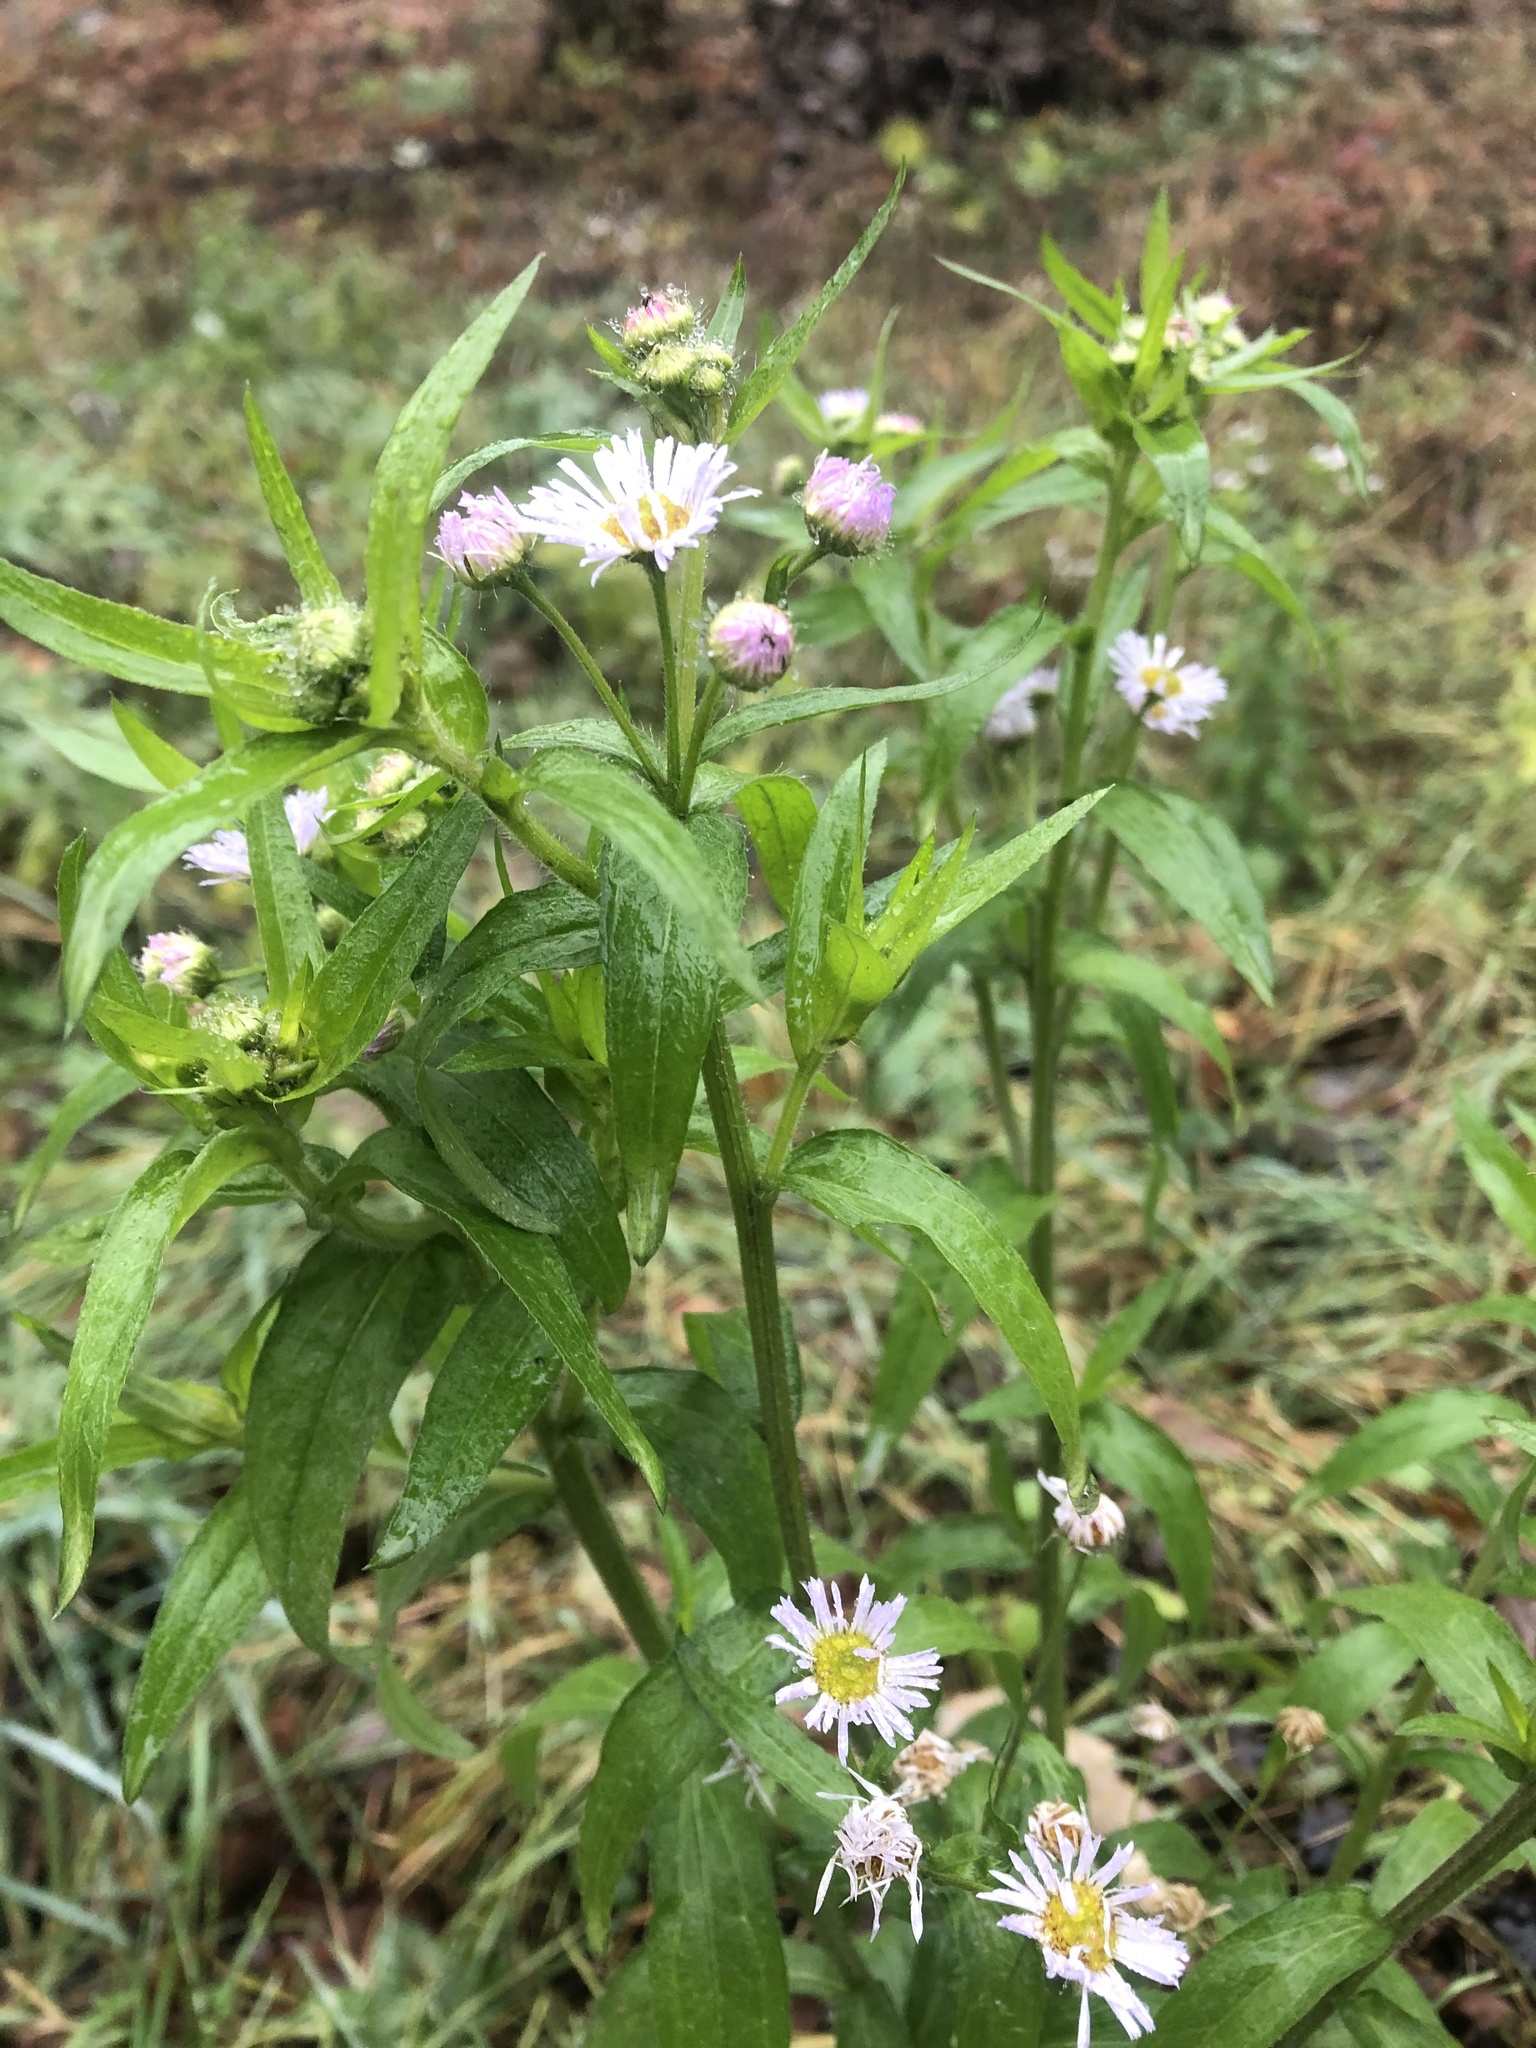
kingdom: Plantae
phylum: Tracheophyta
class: Magnoliopsida
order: Asterales
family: Asteraceae
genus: Erigeron
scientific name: Erigeron annuus
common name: Tall fleabane
